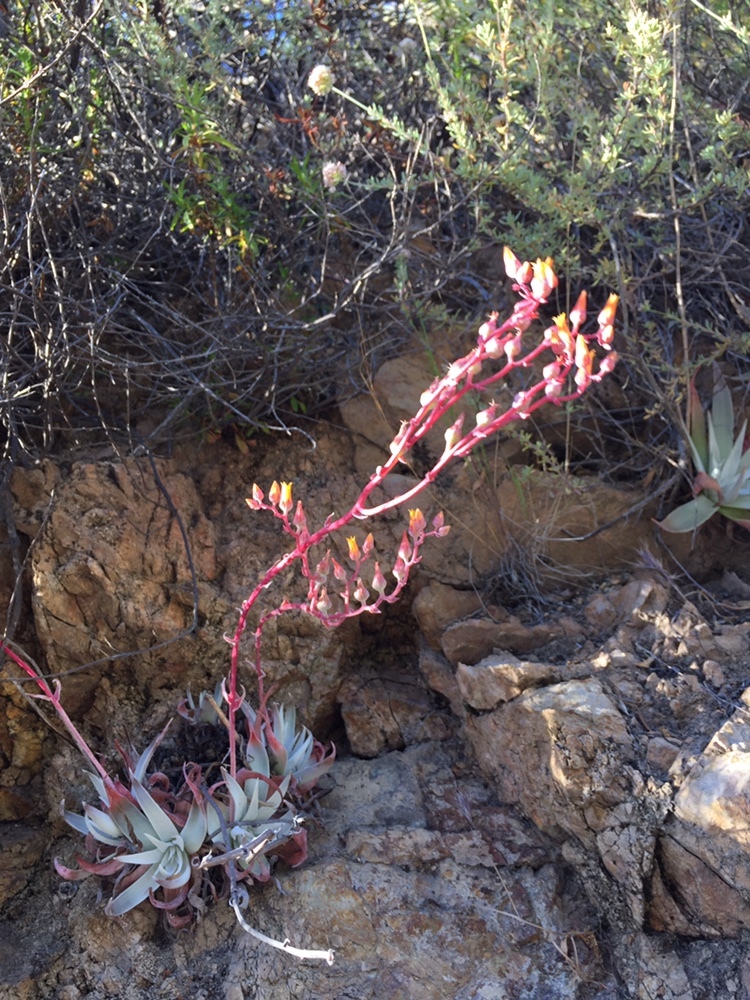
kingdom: Plantae
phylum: Tracheophyta
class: Magnoliopsida
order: Saxifragales
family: Crassulaceae
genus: Dudleya
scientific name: Dudleya lanceolata
